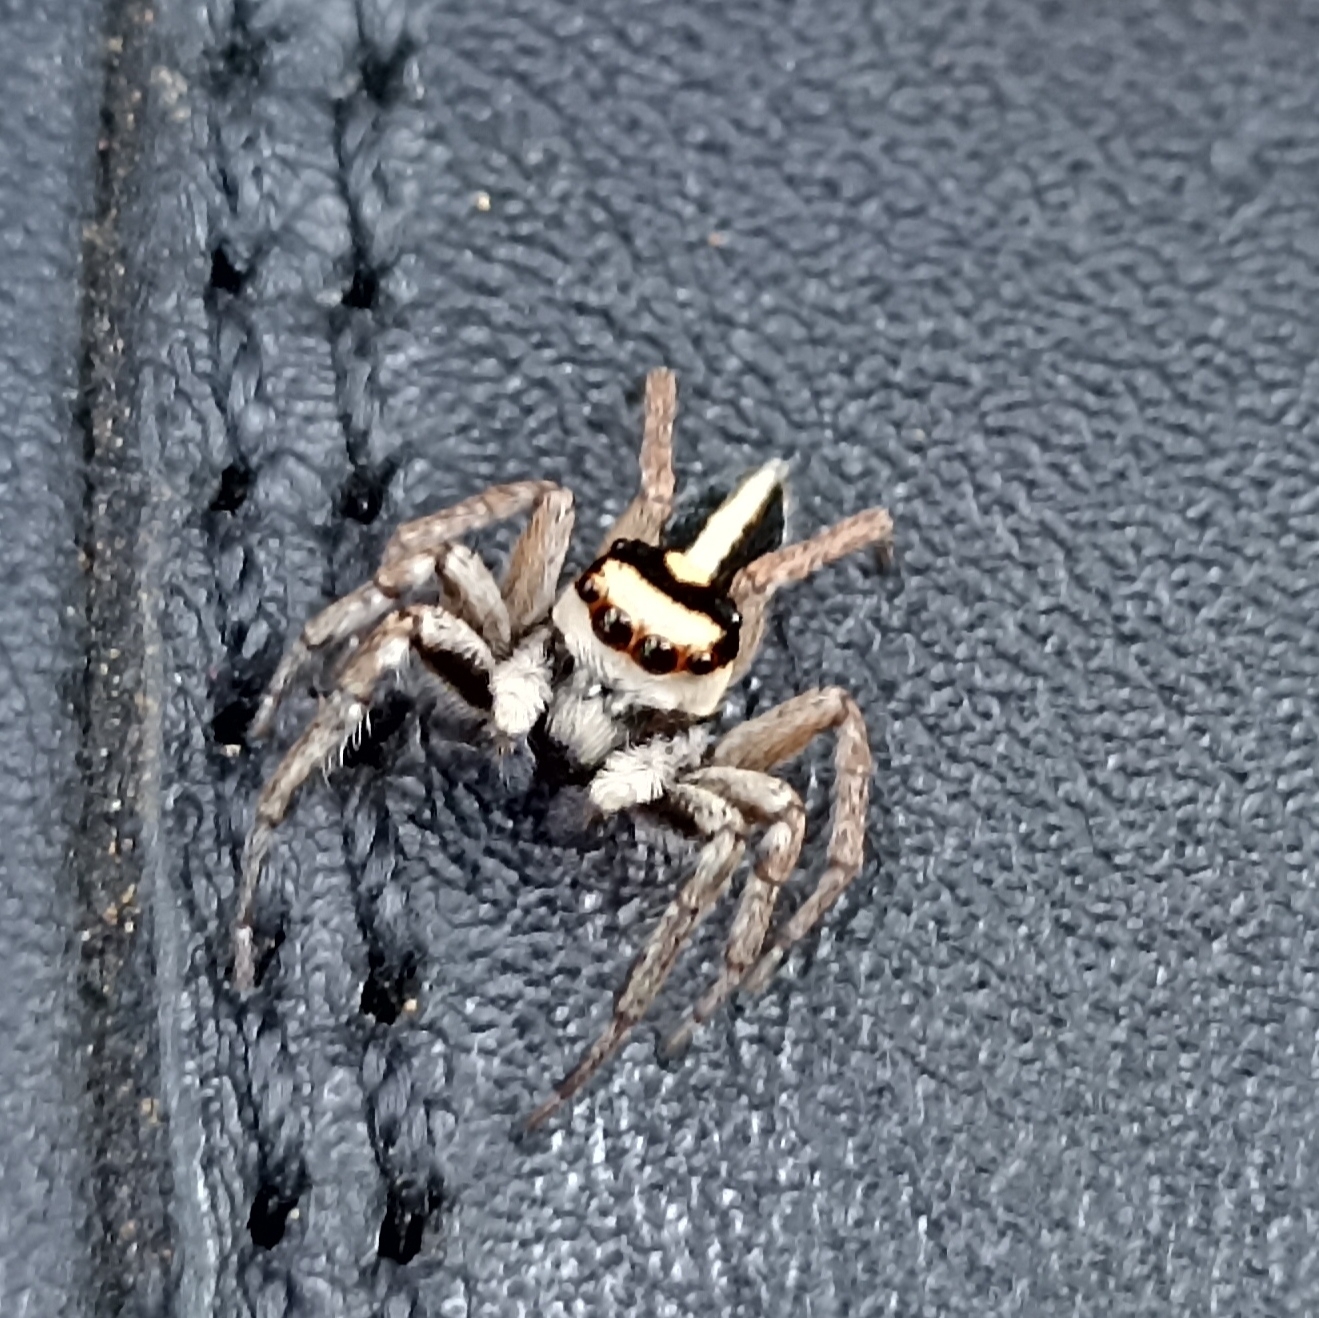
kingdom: Animalia
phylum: Arthropoda
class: Arachnida
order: Araneae
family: Salticidae
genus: Leptofreya
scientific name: Leptofreya ambigua
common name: Jumping spider
